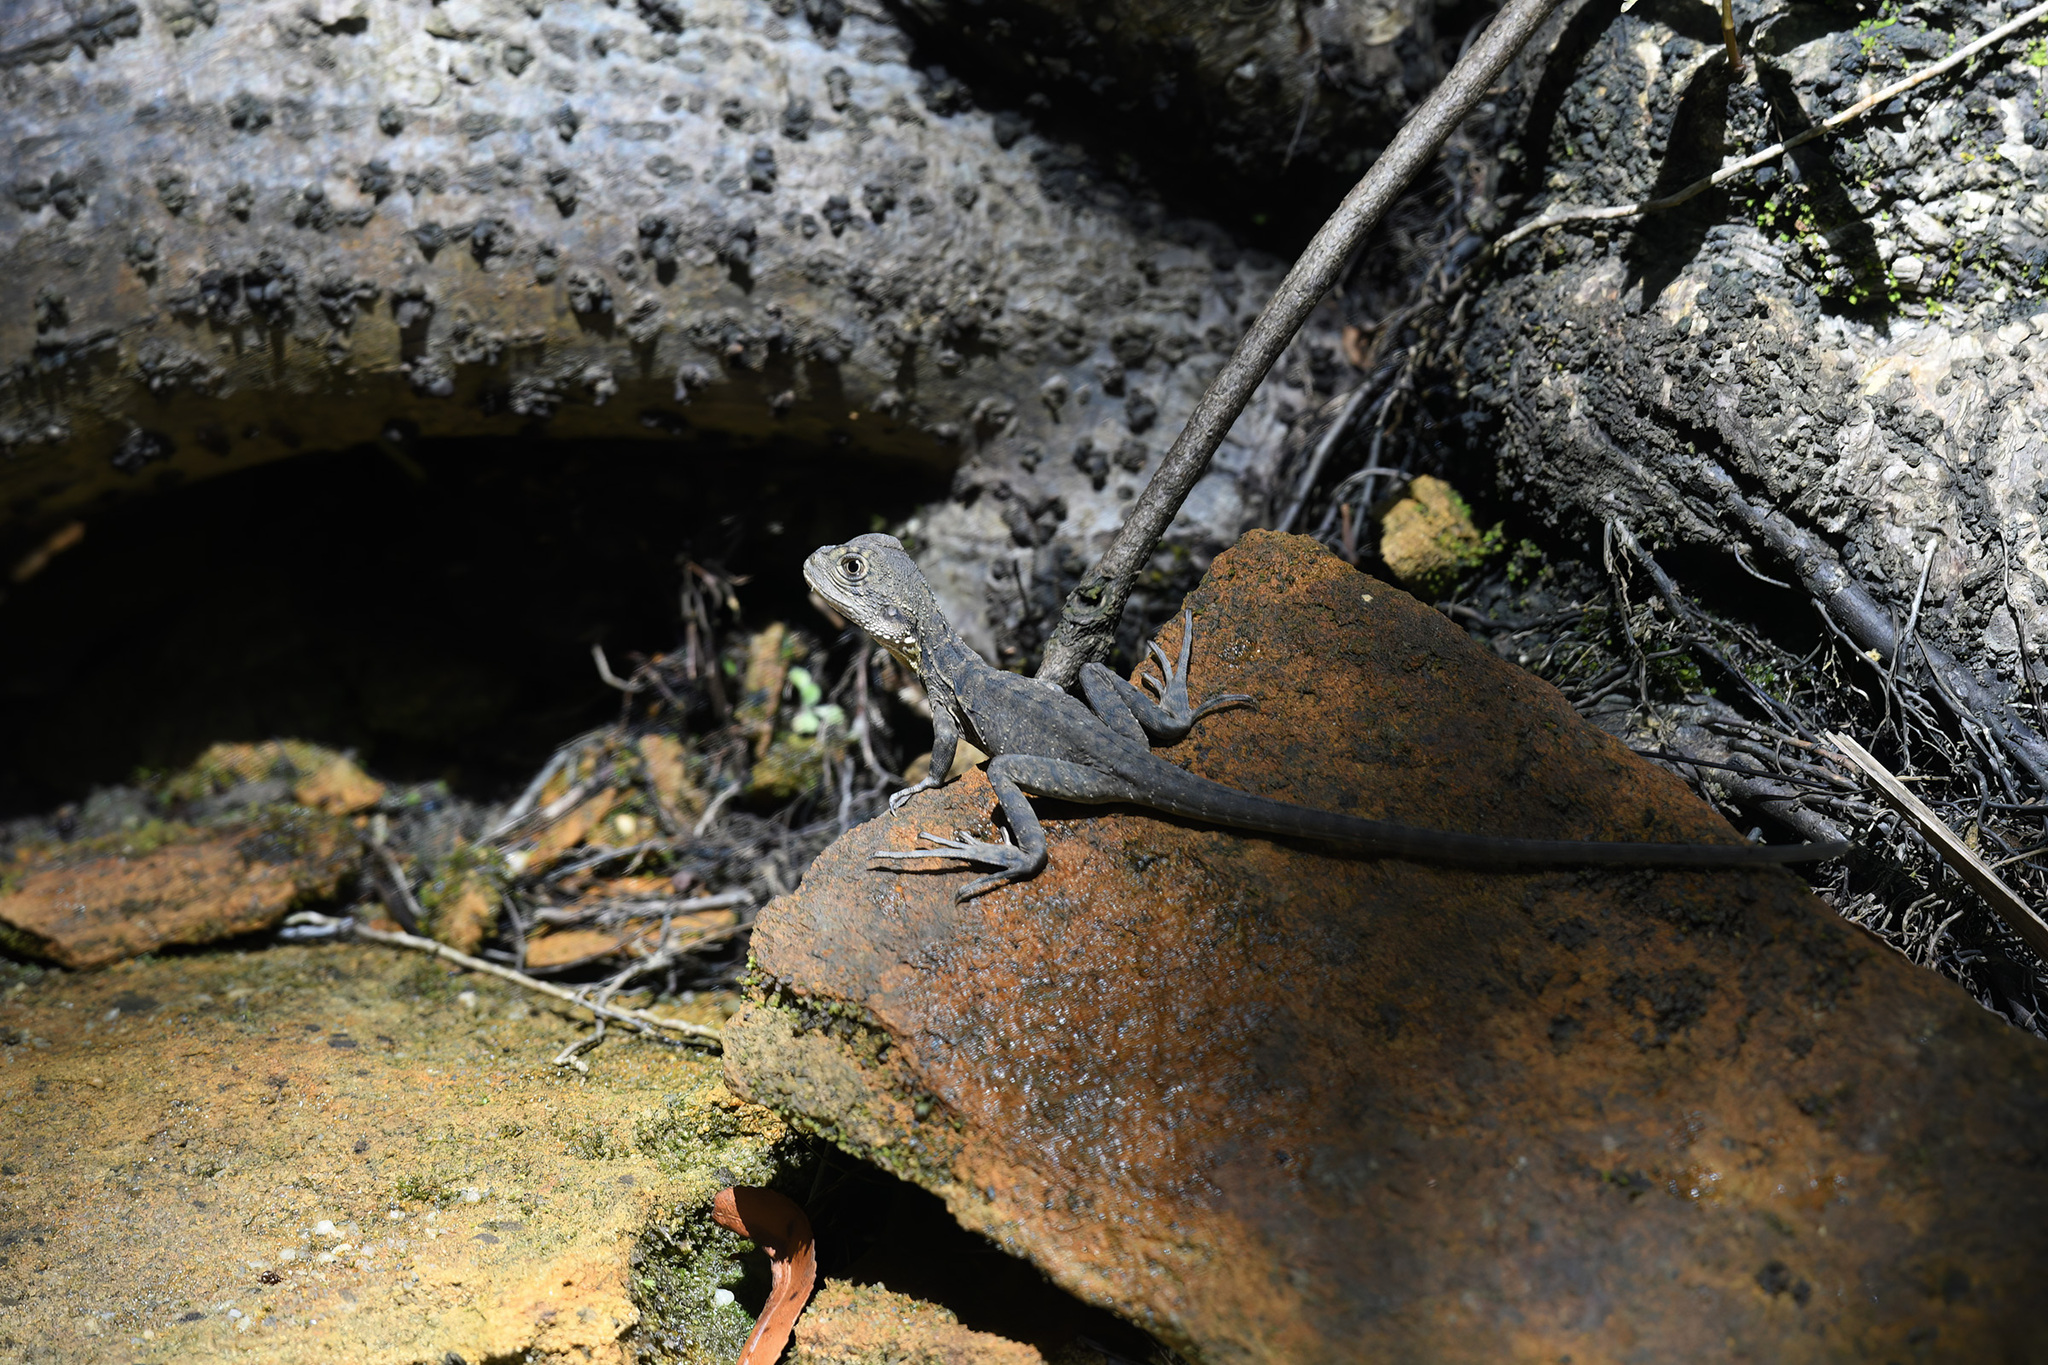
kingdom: Animalia
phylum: Chordata
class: Squamata
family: Agamidae
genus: Intellagama
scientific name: Intellagama lesueurii
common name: Eastern water dragon
